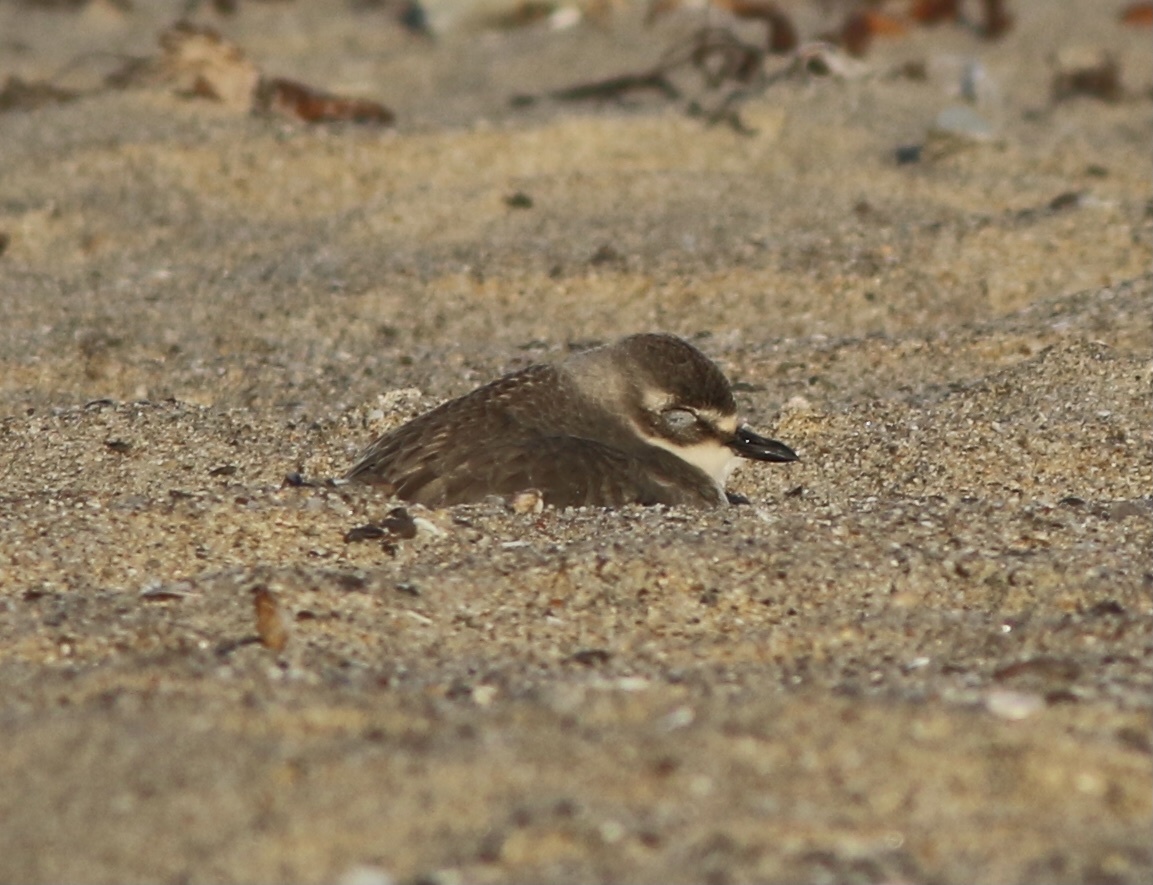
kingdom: Animalia
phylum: Chordata
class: Aves
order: Charadriiformes
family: Charadriidae
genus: Anarhynchus
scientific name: Anarhynchus
